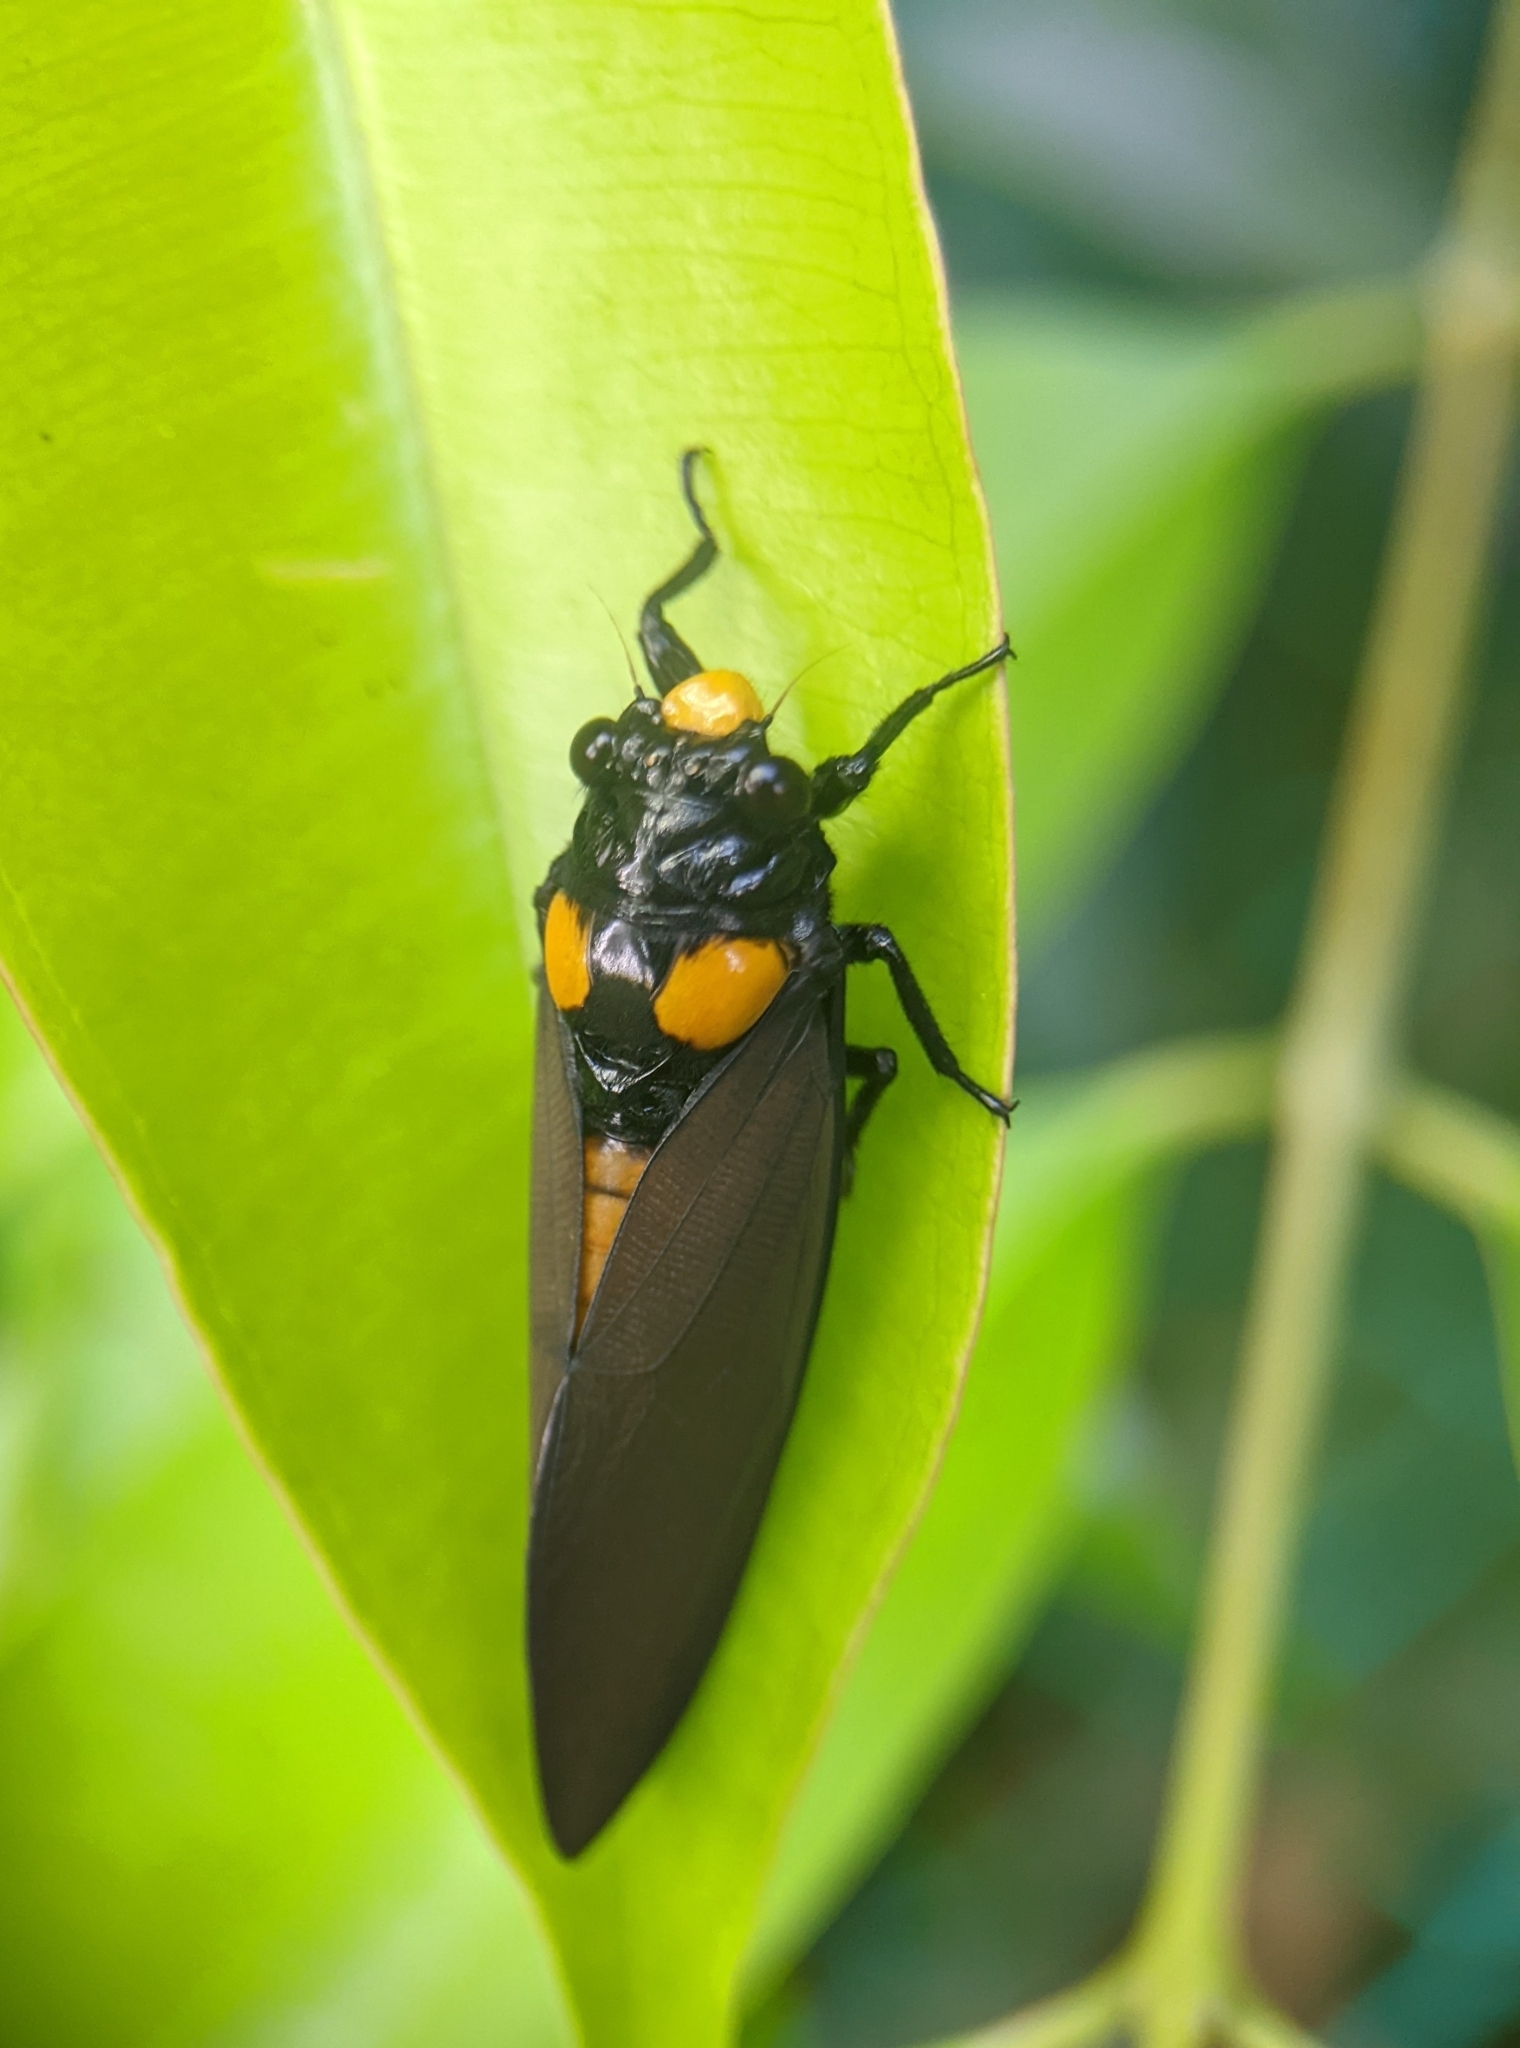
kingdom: Animalia
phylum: Arthropoda
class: Insecta
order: Hemiptera
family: Cicadidae
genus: Huechys
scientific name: Huechys fusca
